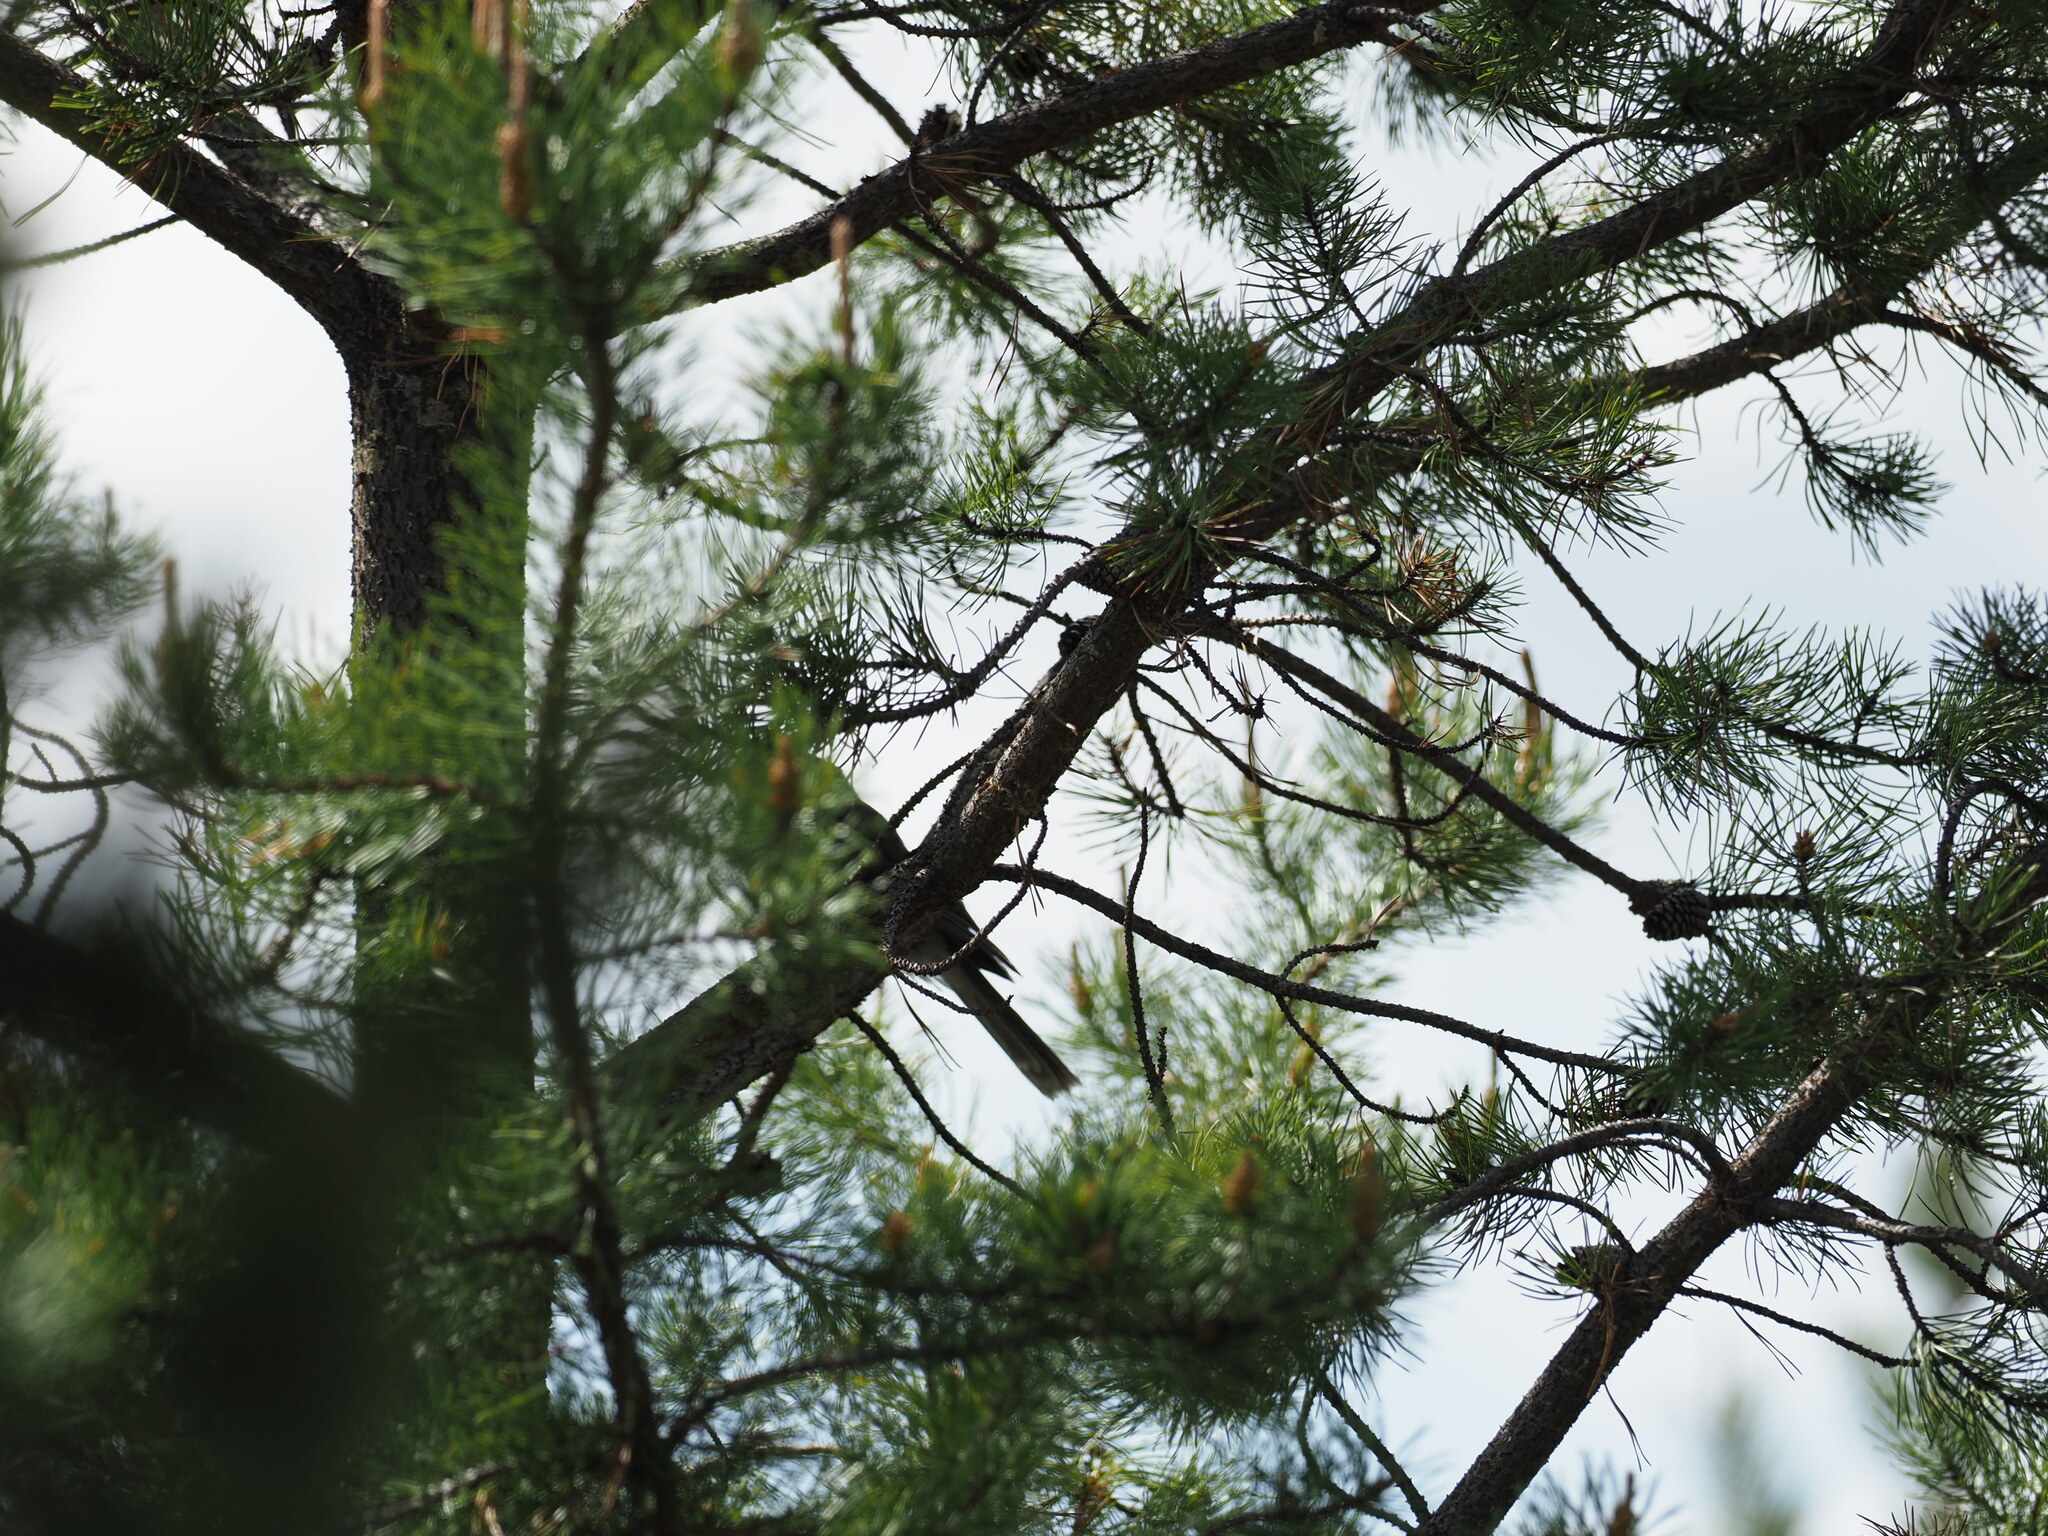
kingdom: Animalia
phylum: Chordata
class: Aves
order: Passeriformes
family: Corvidae
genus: Perisoreus
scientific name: Perisoreus canadensis
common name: Gray jay
